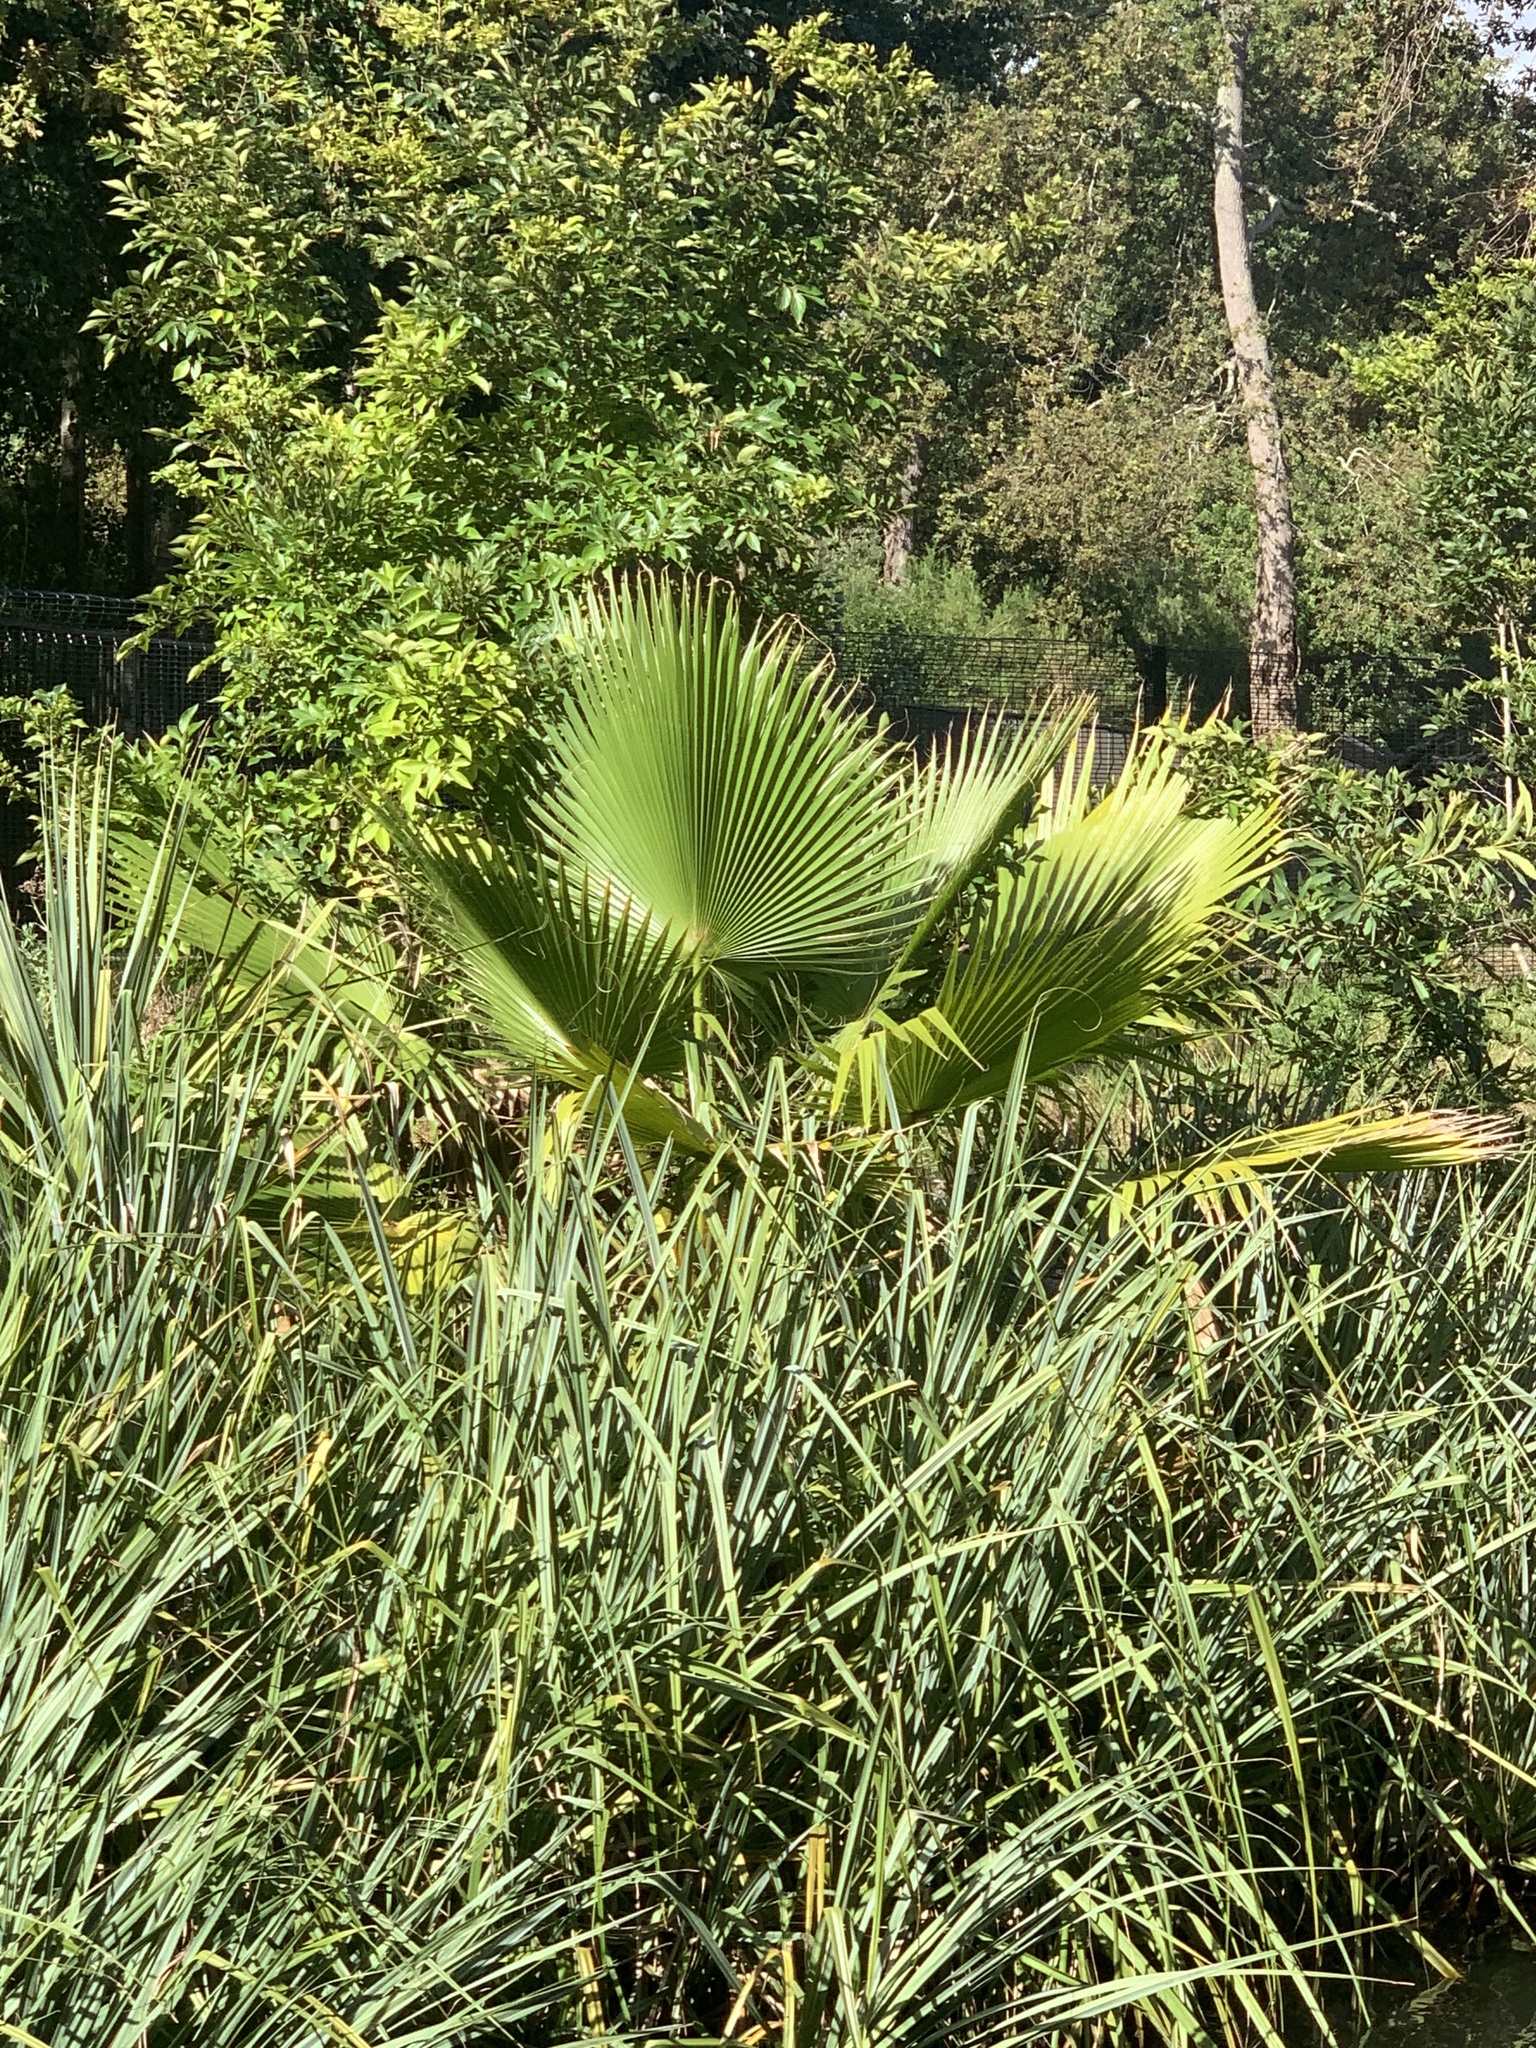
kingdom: Plantae
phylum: Tracheophyta
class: Liliopsida
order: Arecales
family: Arecaceae
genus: Washingtonia
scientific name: Washingtonia robusta
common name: Mexican fan palm
